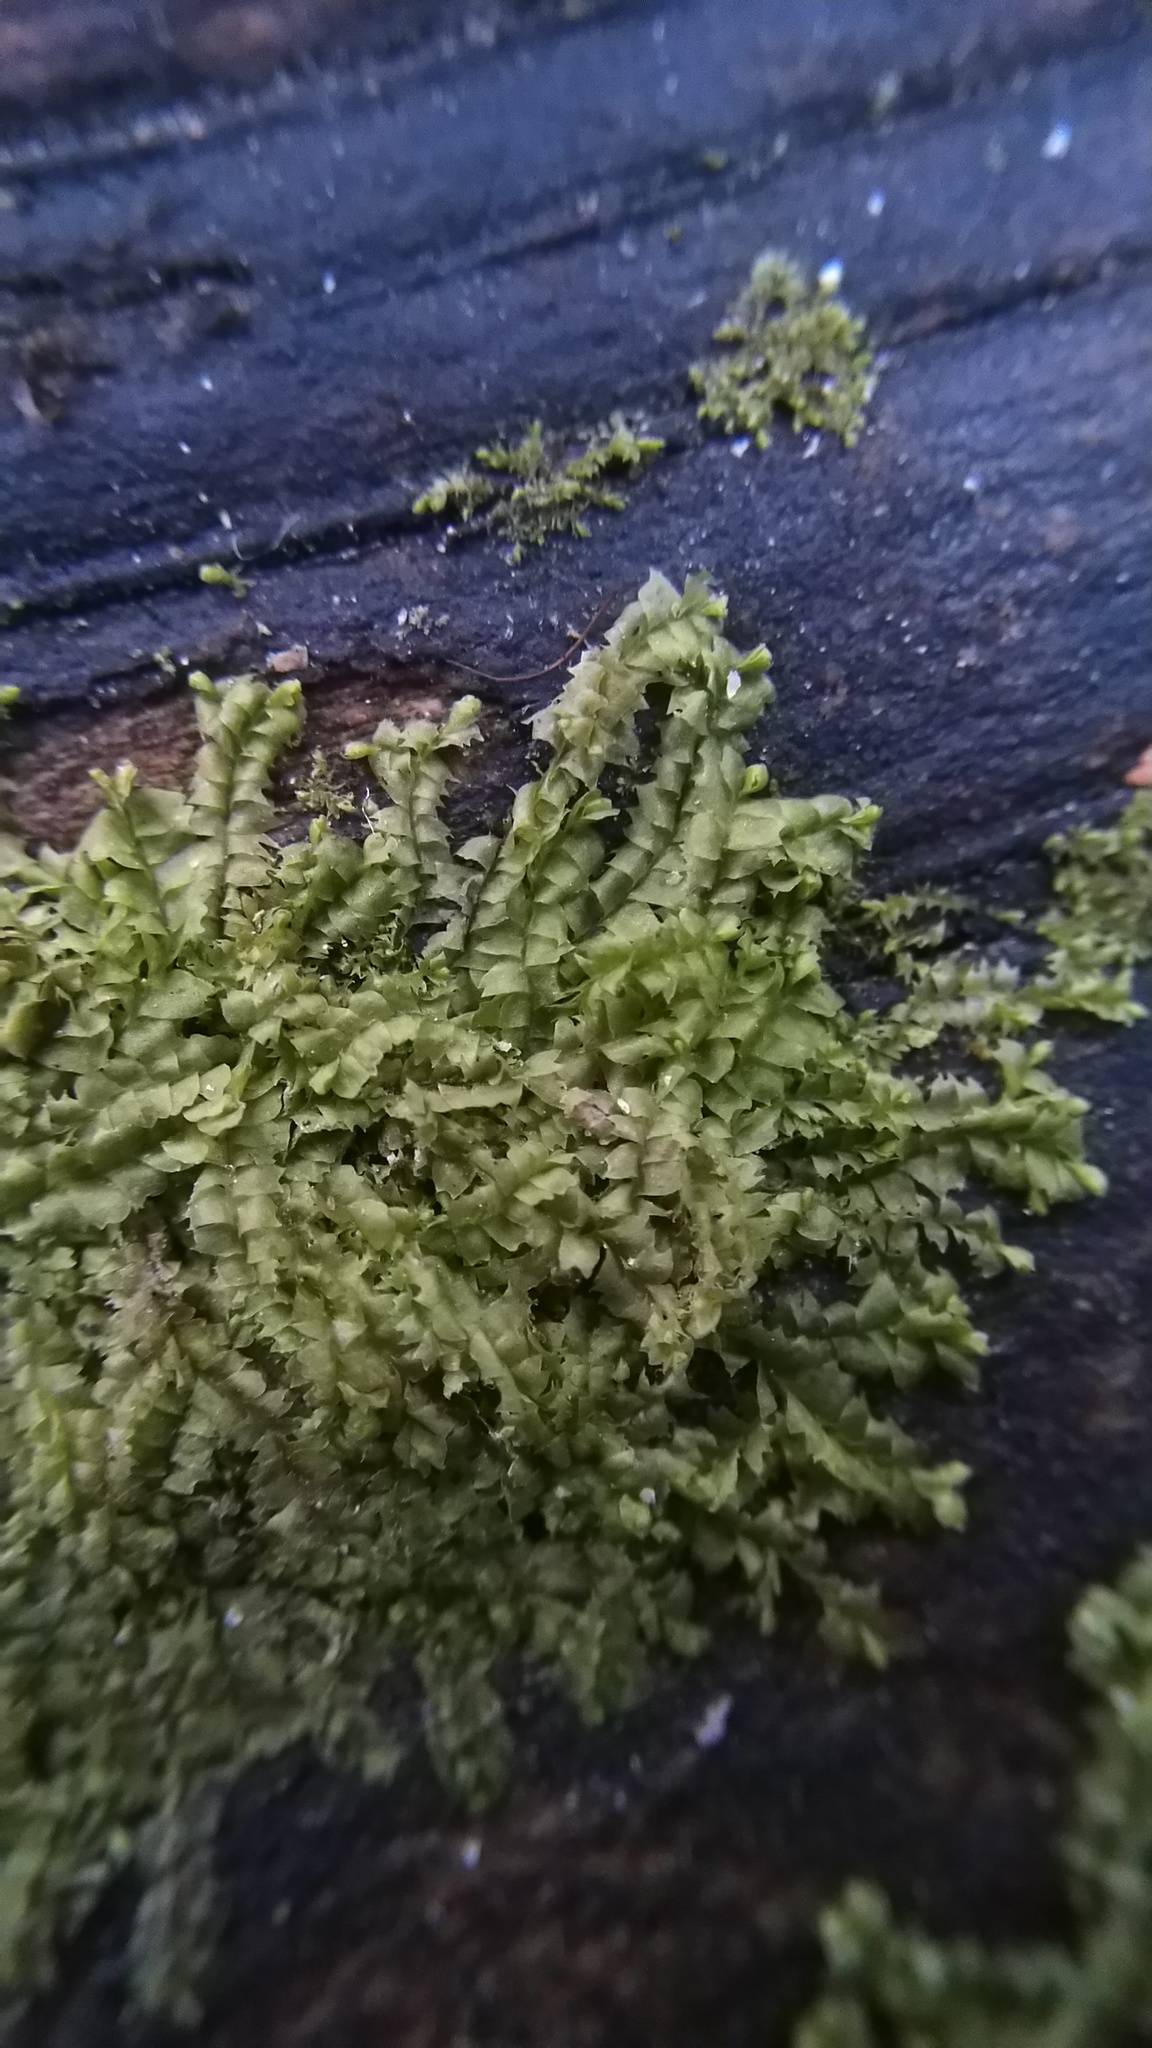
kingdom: Plantae
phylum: Marchantiophyta
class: Jungermanniopsida
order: Jungermanniales
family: Lophocoleaceae
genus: Lophocolea
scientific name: Lophocolea heterophylla
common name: Variable-leaved crestwort
